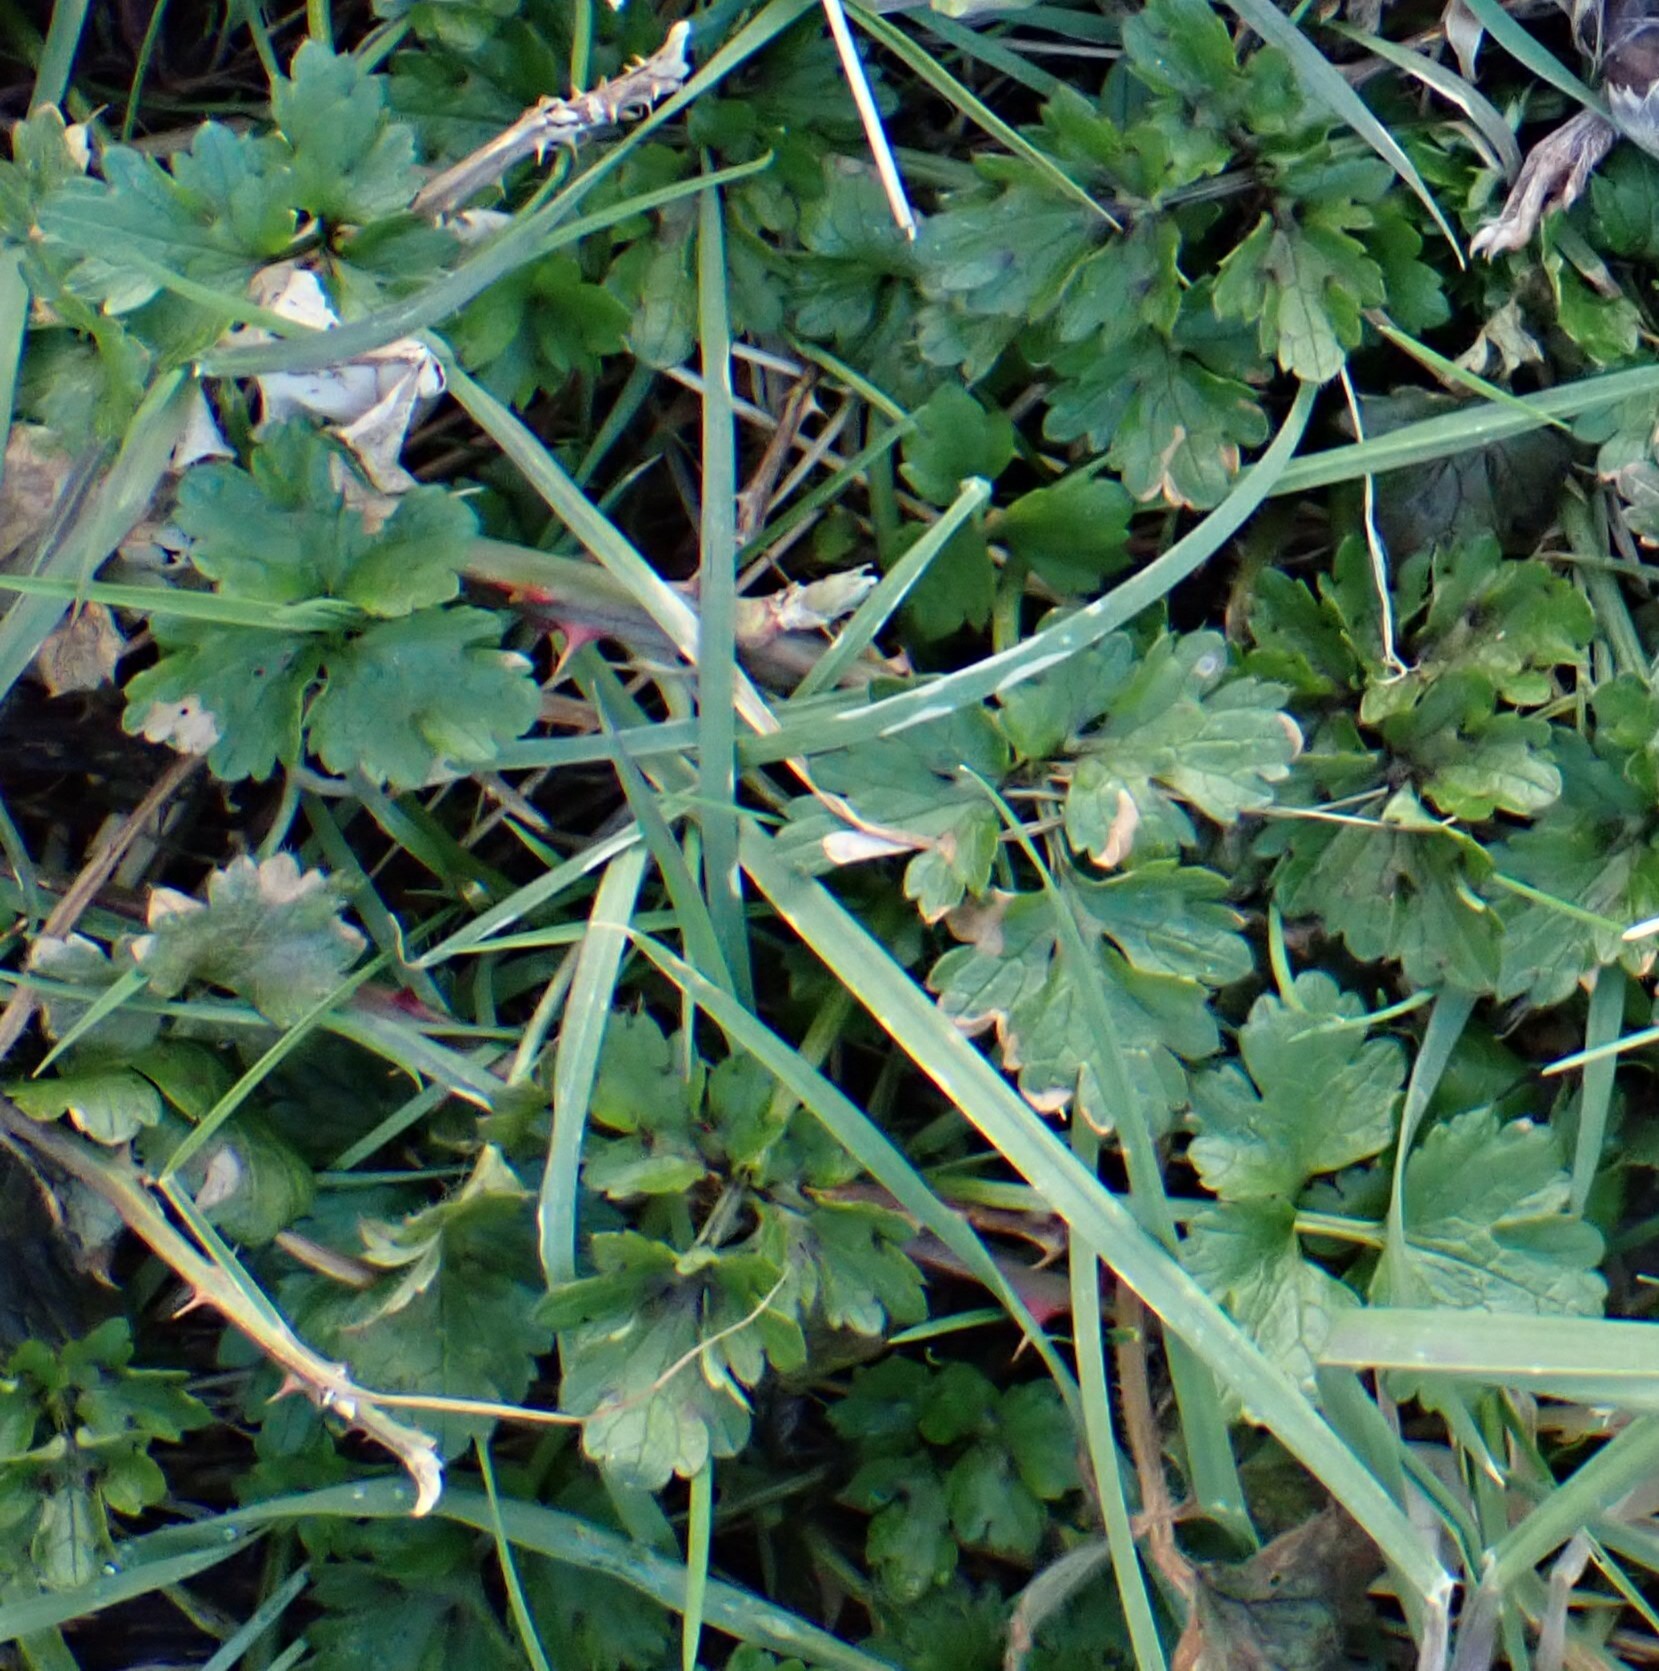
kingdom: Plantae
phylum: Tracheophyta
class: Magnoliopsida
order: Ranunculales
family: Ranunculaceae
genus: Ranunculus
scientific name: Ranunculus repens
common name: Creeping buttercup
